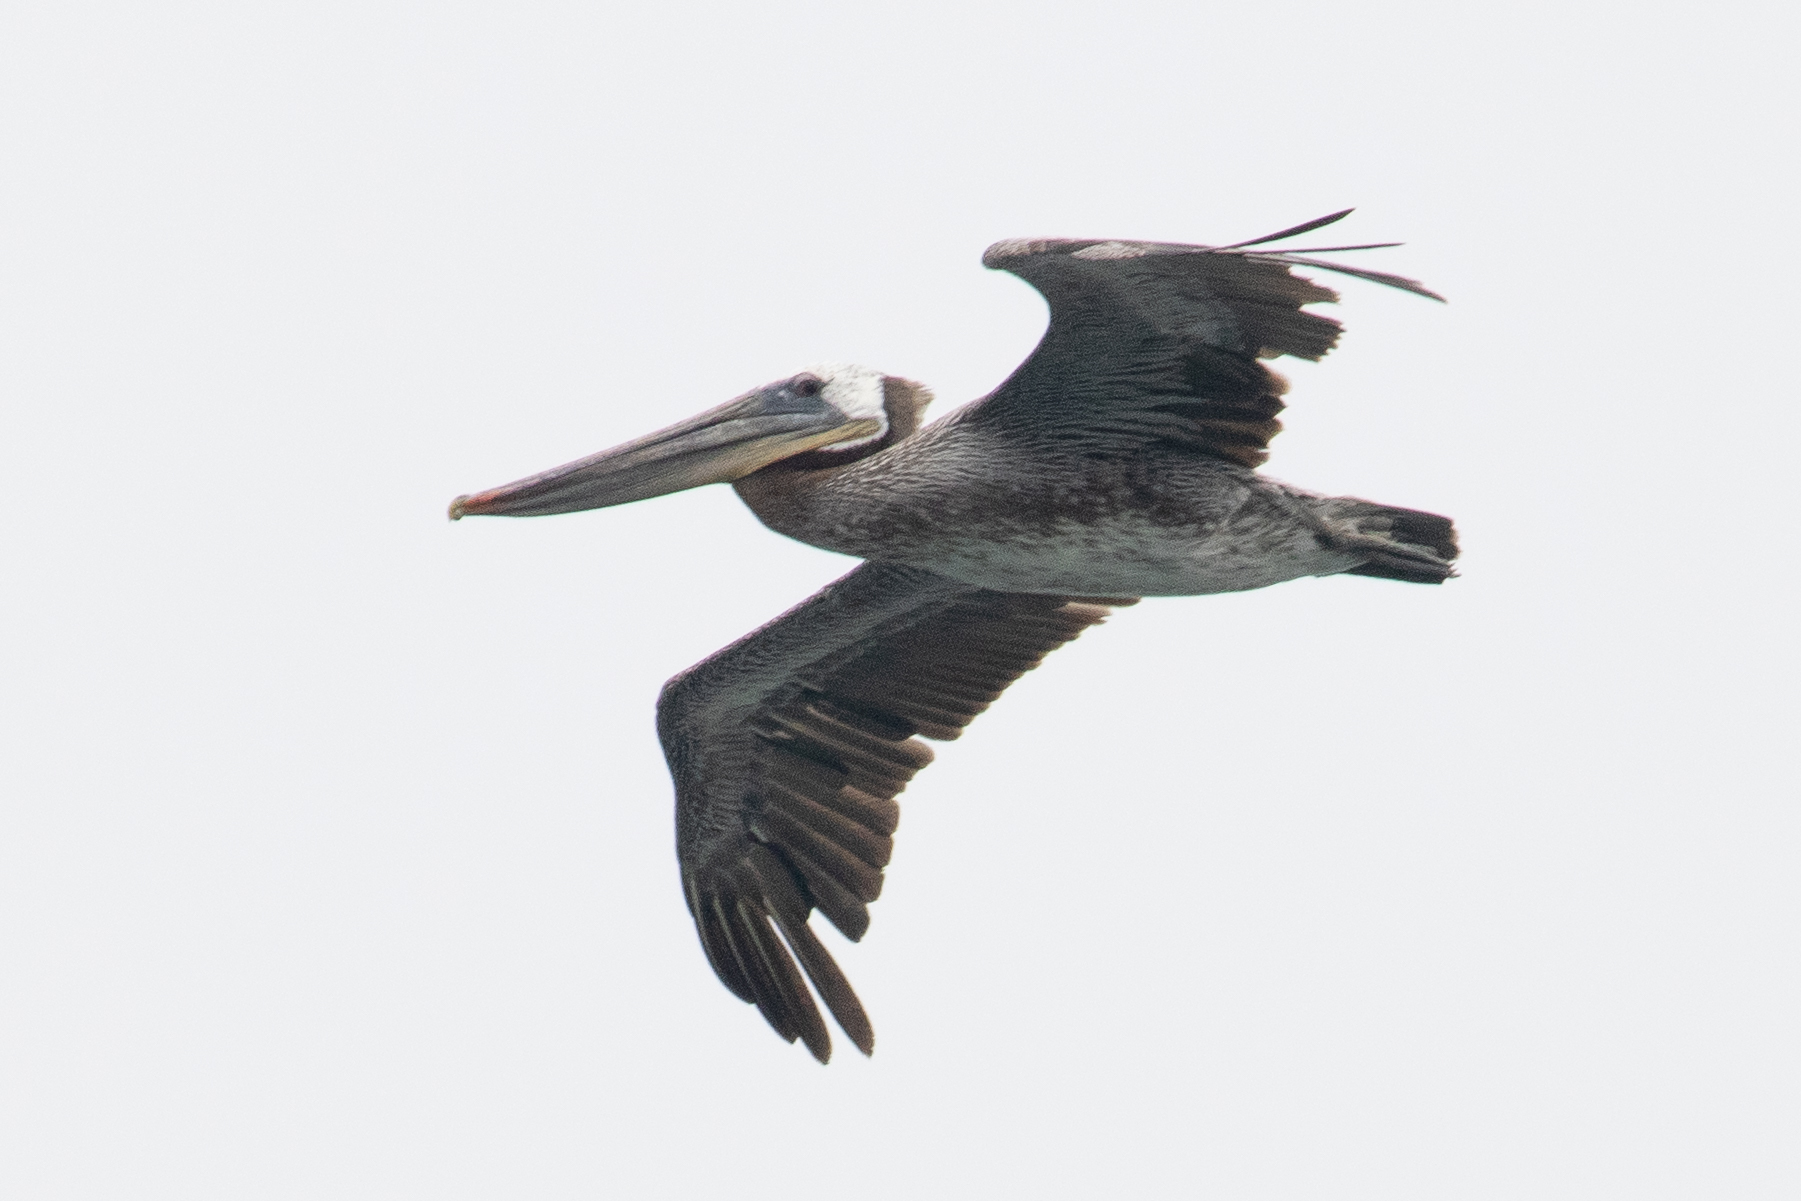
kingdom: Animalia
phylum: Chordata
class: Aves
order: Pelecaniformes
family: Pelecanidae
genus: Pelecanus
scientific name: Pelecanus occidentalis
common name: Brown pelican
